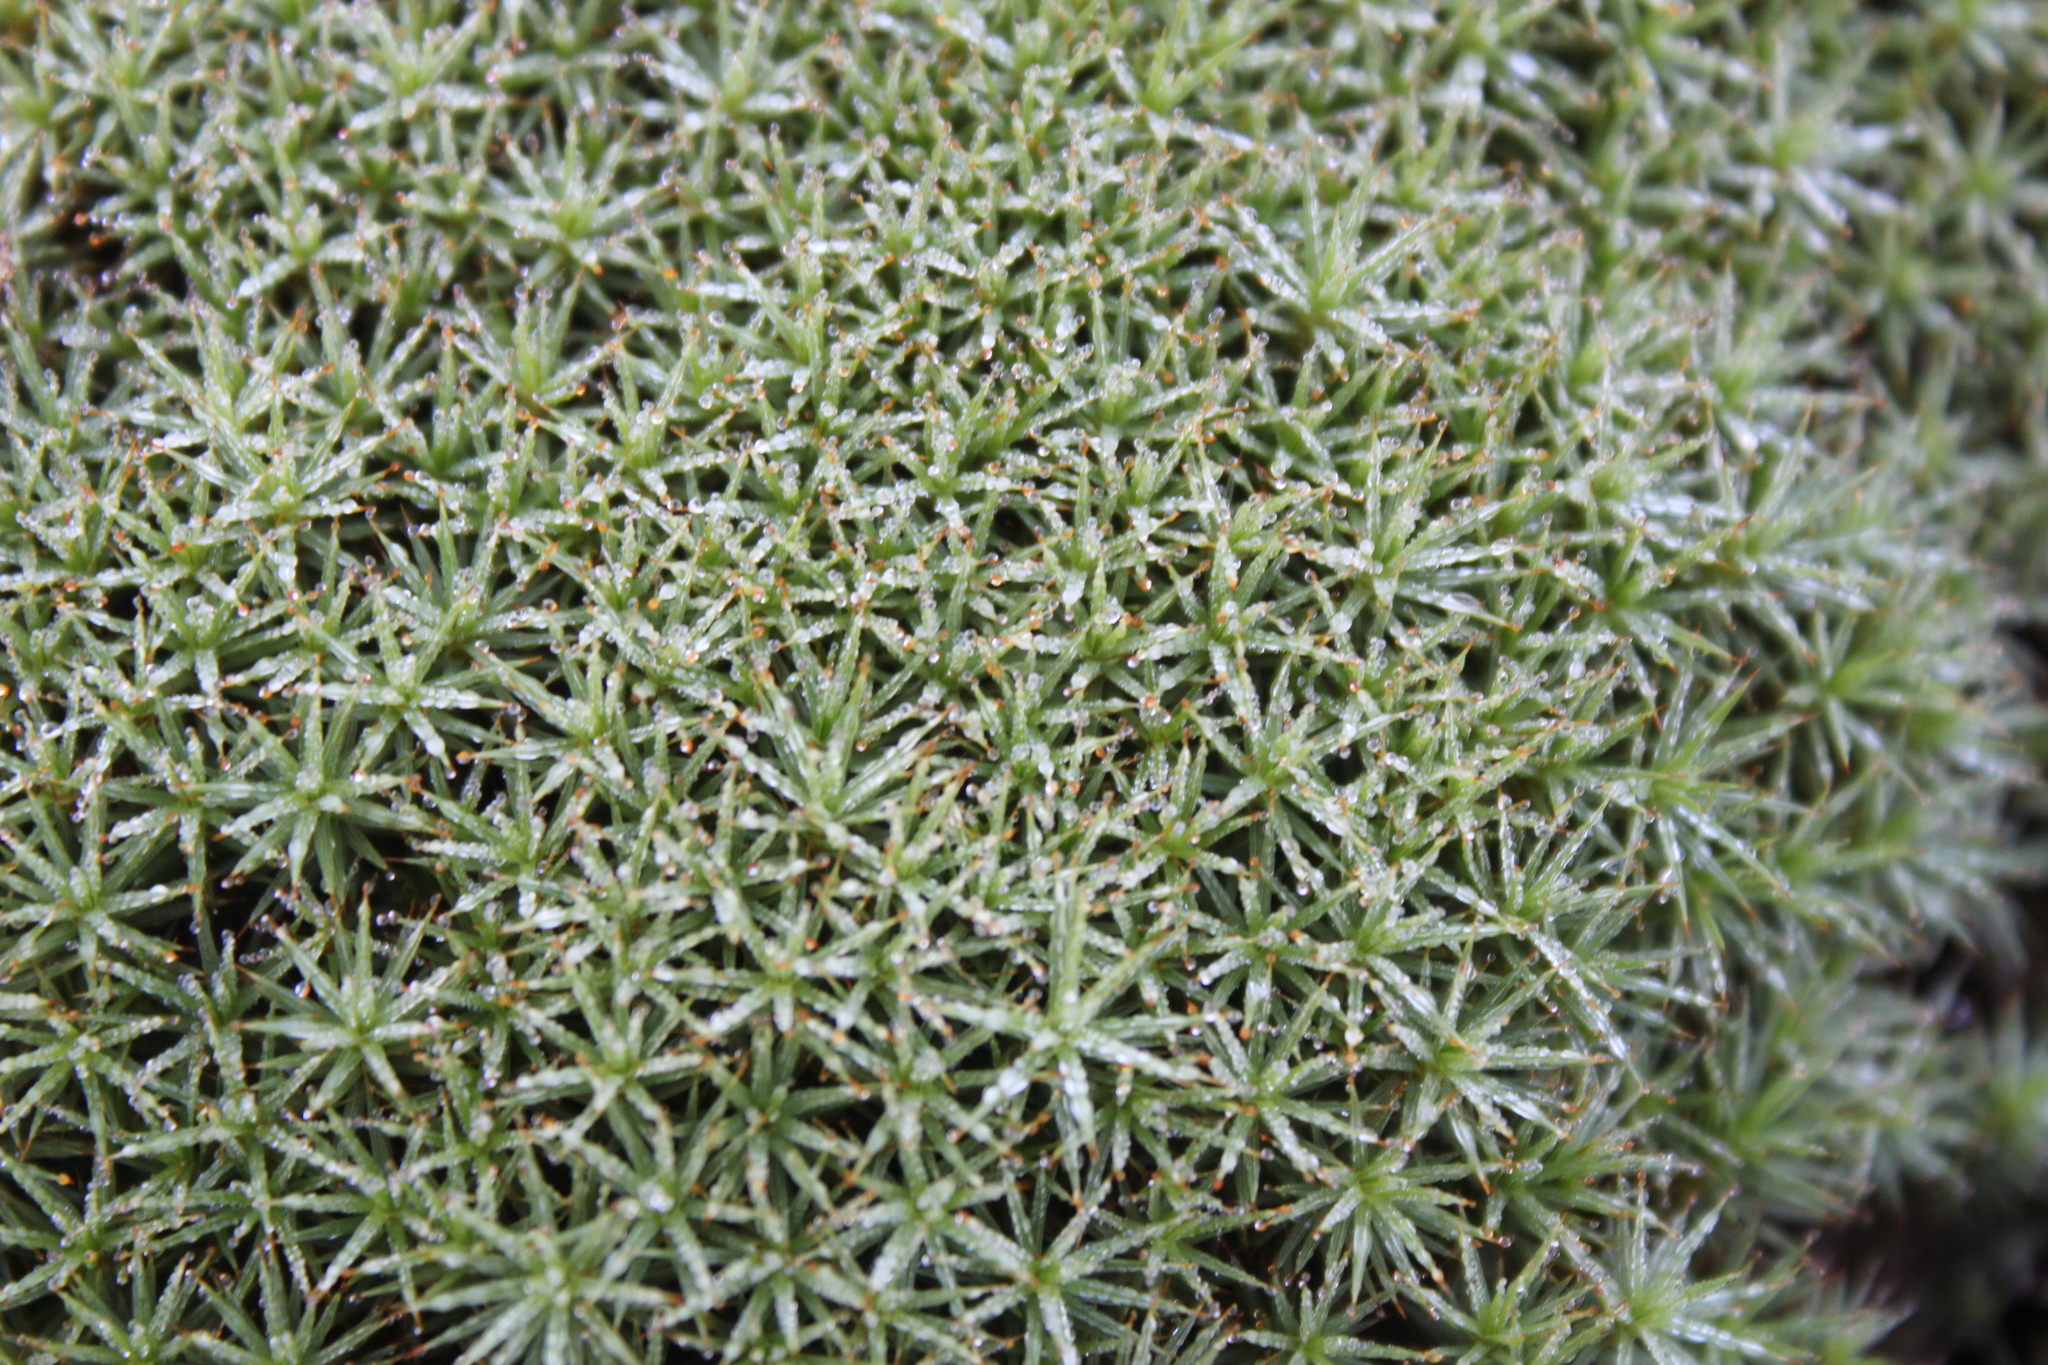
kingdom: Plantae
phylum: Bryophyta
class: Polytrichopsida
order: Polytrichales
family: Polytrichaceae
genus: Polytrichum
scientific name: Polytrichum juniperinum
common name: Juniper haircap moss
